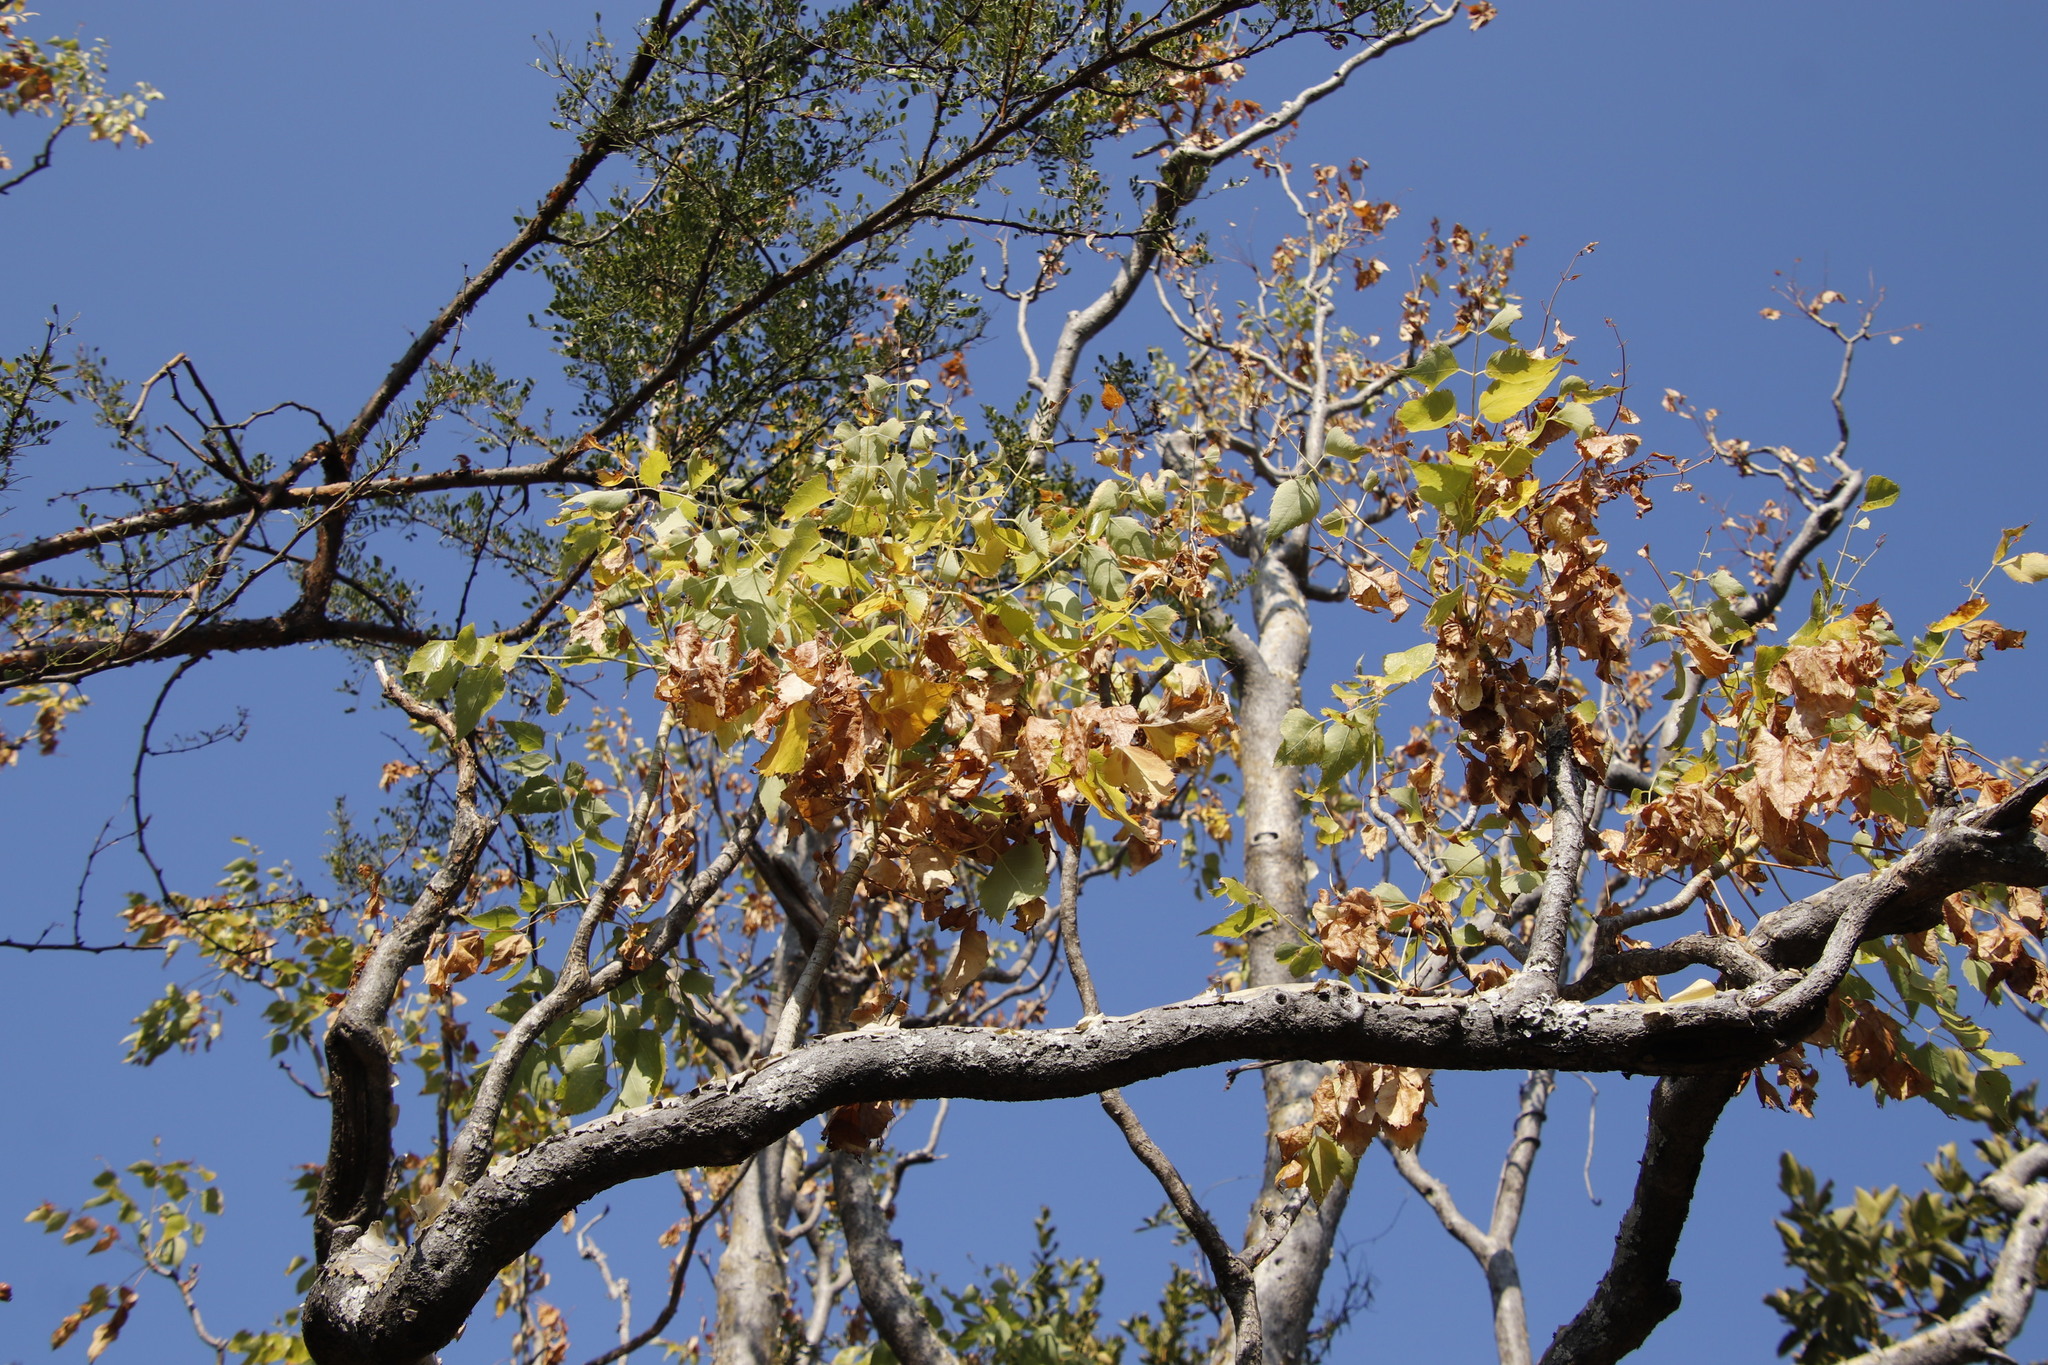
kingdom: Plantae
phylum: Tracheophyta
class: Magnoliopsida
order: Apiales
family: Apiaceae
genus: Steganotaenia
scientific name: Steganotaenia araliacea
